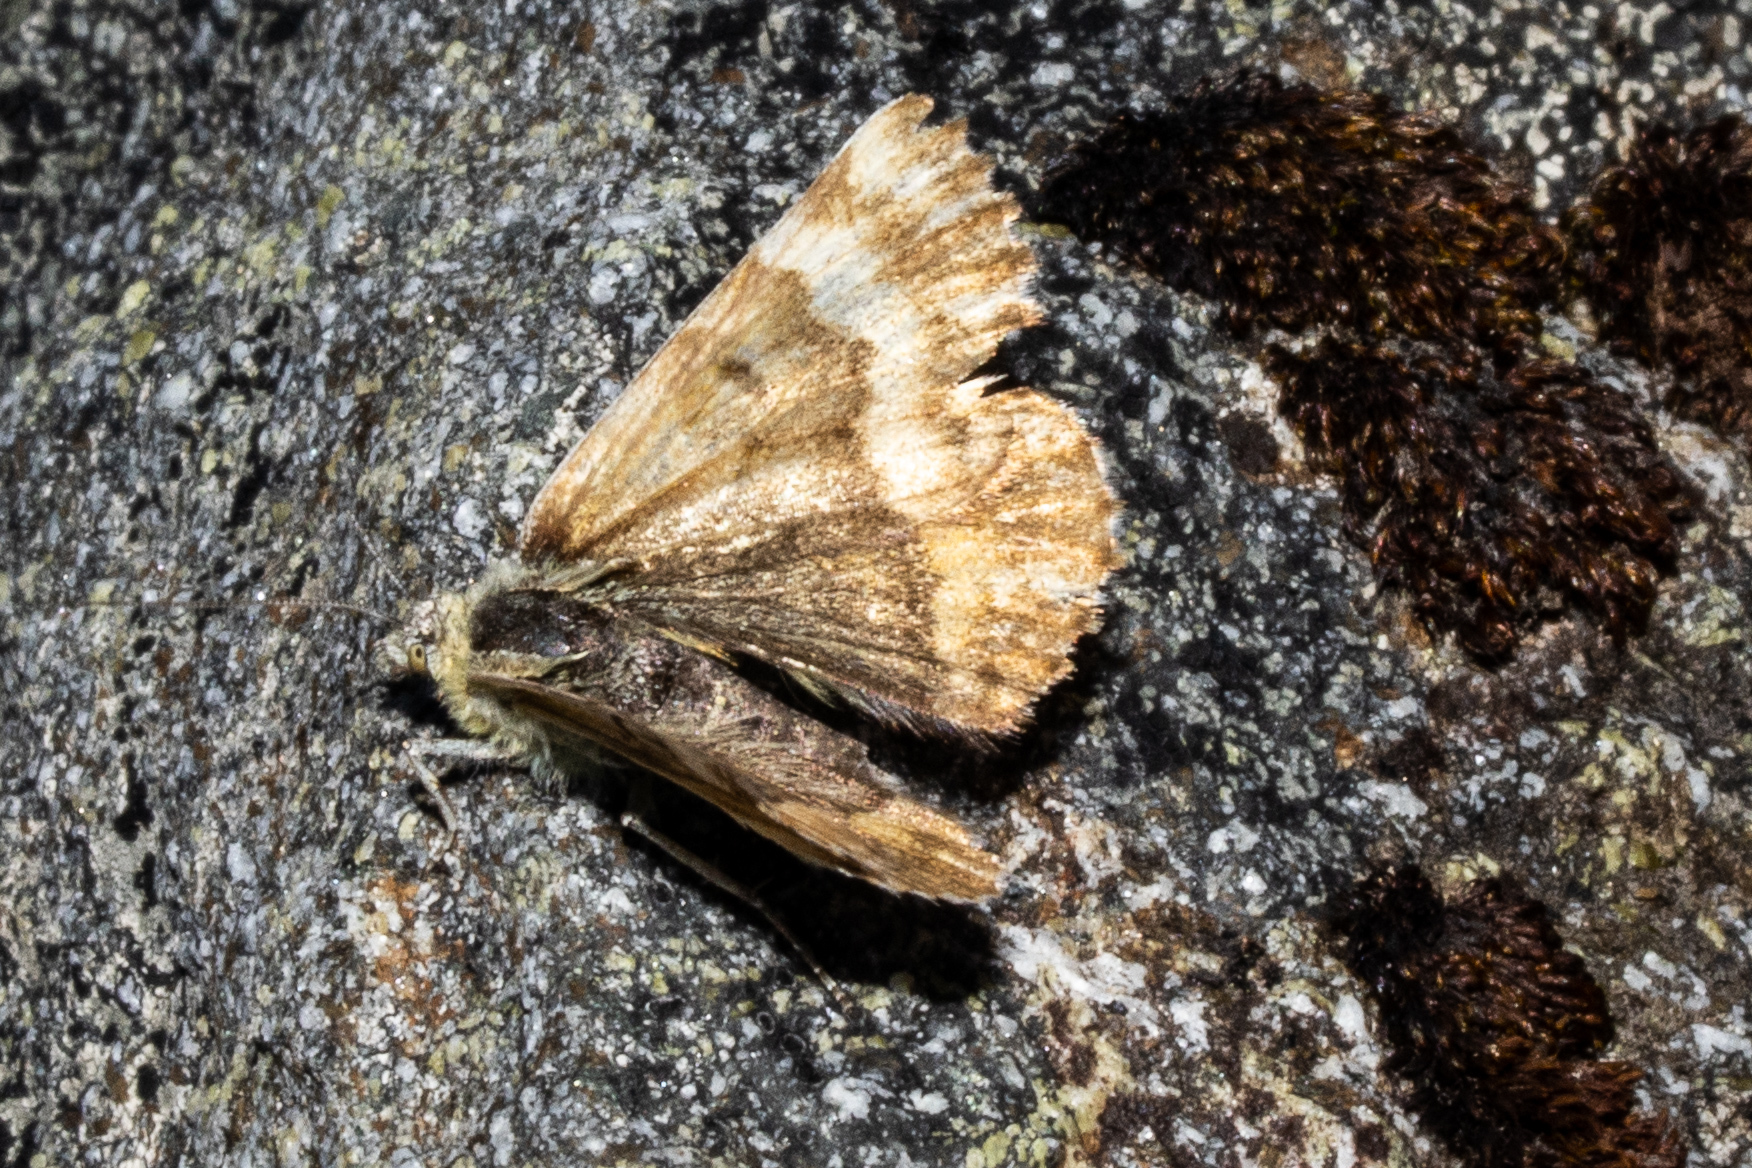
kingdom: Animalia
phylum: Arthropoda
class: Insecta
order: Lepidoptera
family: Geometridae
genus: Dasyuris
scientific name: Dasyuris partheniata
